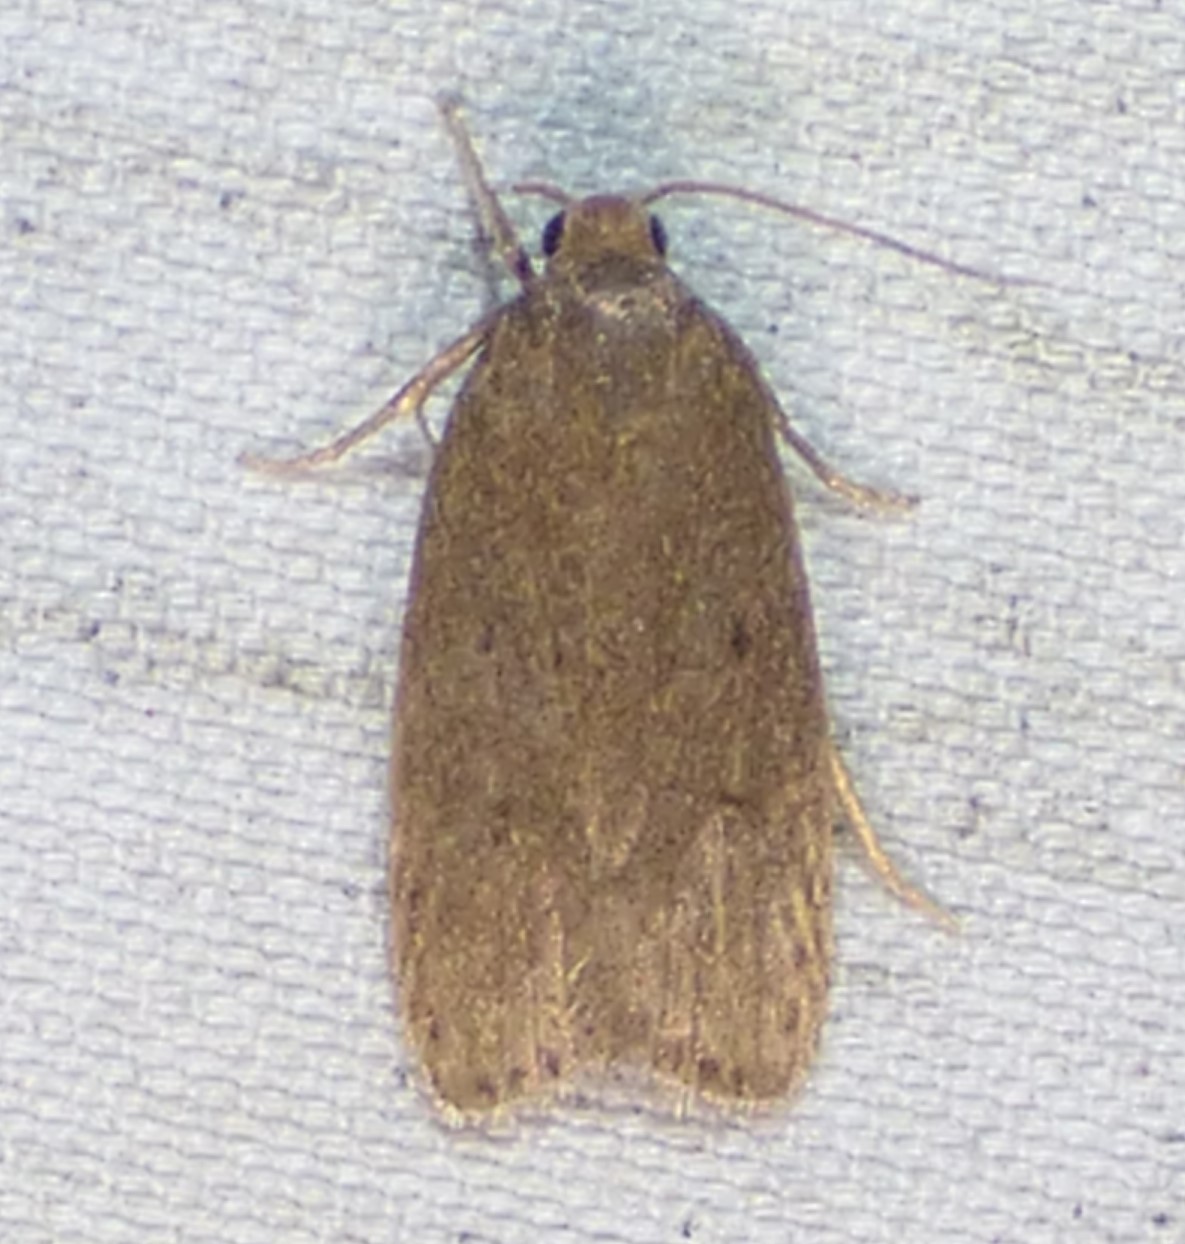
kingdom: Animalia
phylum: Arthropoda
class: Insecta
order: Lepidoptera
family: Autostichidae
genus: Autosticha
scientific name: Autosticha kyotensis
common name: Kyoto moth
